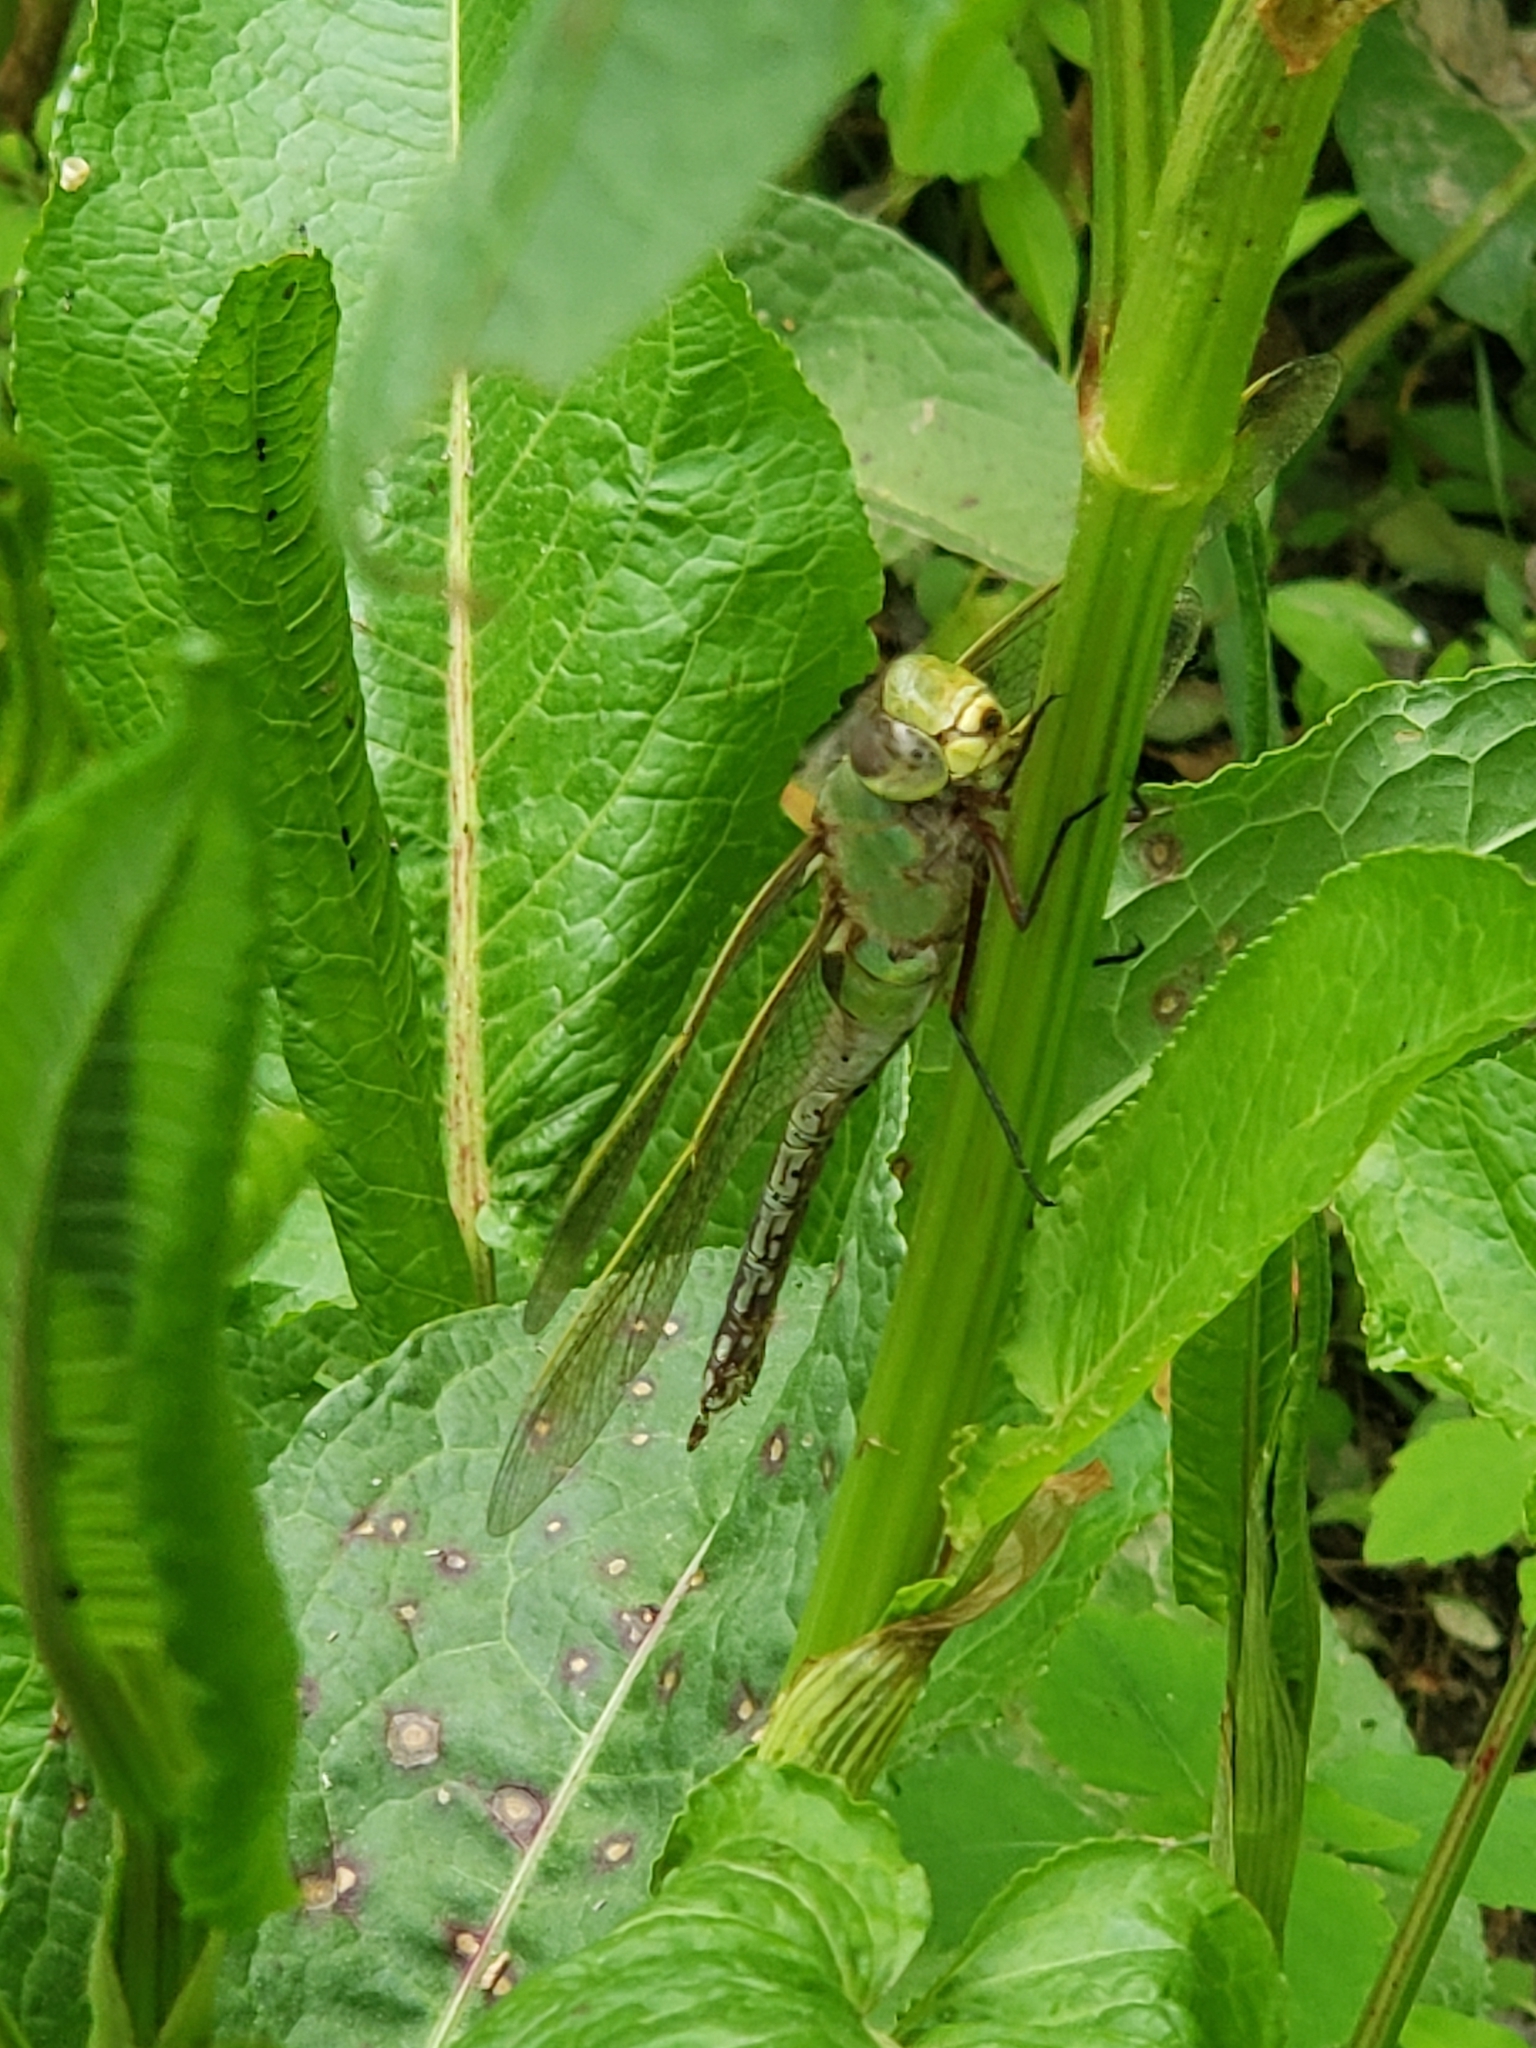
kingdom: Animalia
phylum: Arthropoda
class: Insecta
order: Odonata
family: Aeshnidae
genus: Anax
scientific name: Anax junius
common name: Common green darner
